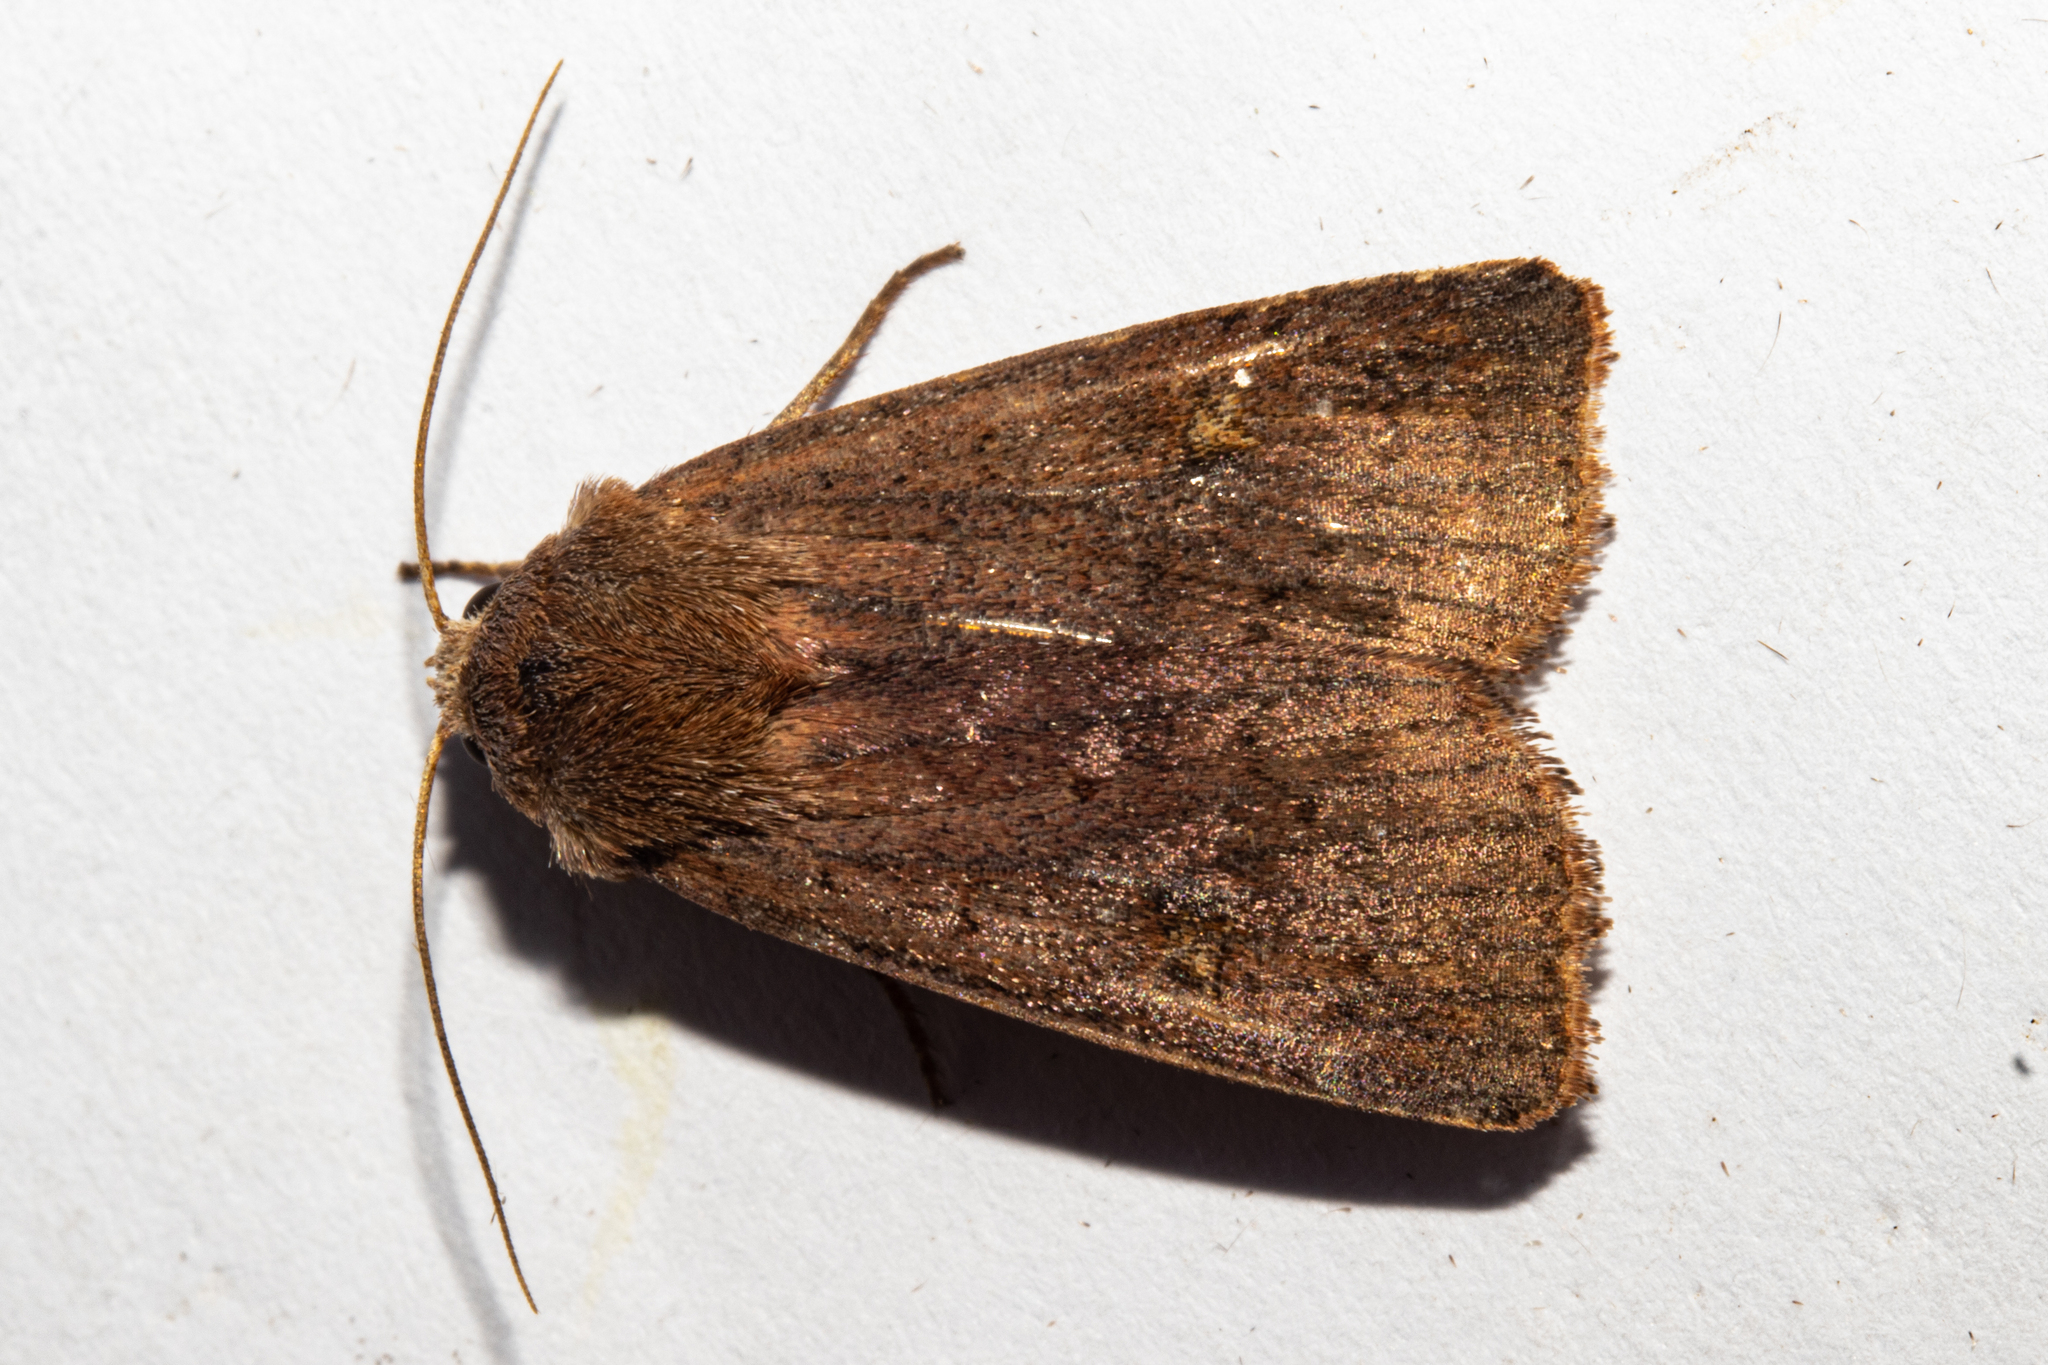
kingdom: Animalia
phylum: Arthropoda
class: Insecta
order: Lepidoptera
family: Noctuidae
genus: Diarsia
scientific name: Diarsia intermixta
